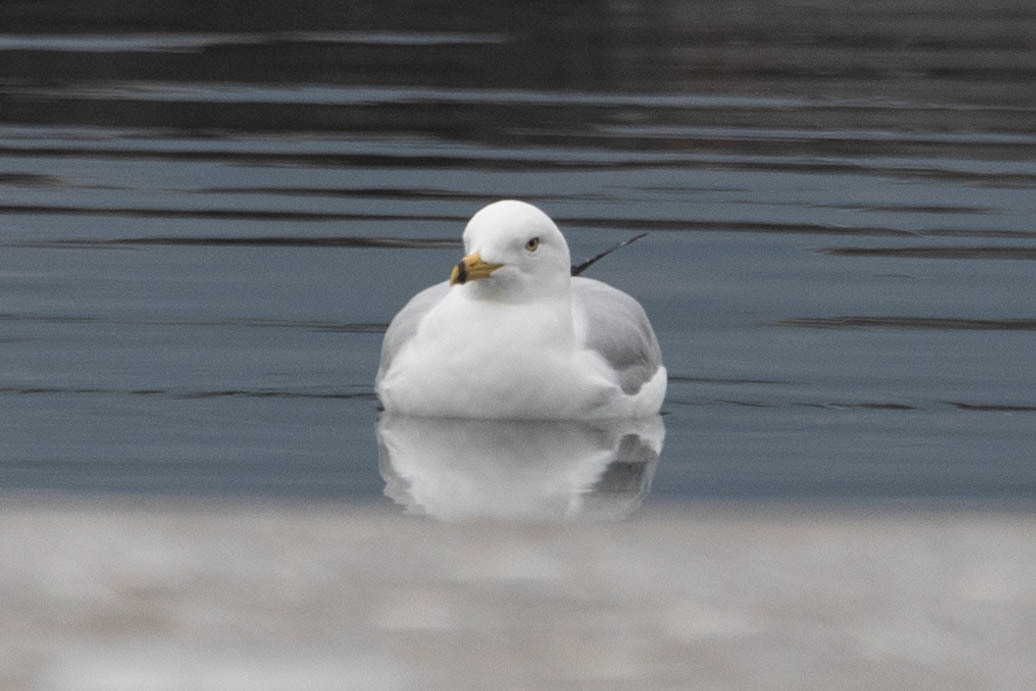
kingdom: Animalia
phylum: Chordata
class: Aves
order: Charadriiformes
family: Laridae
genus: Larus
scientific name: Larus delawarensis
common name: Ring-billed gull
